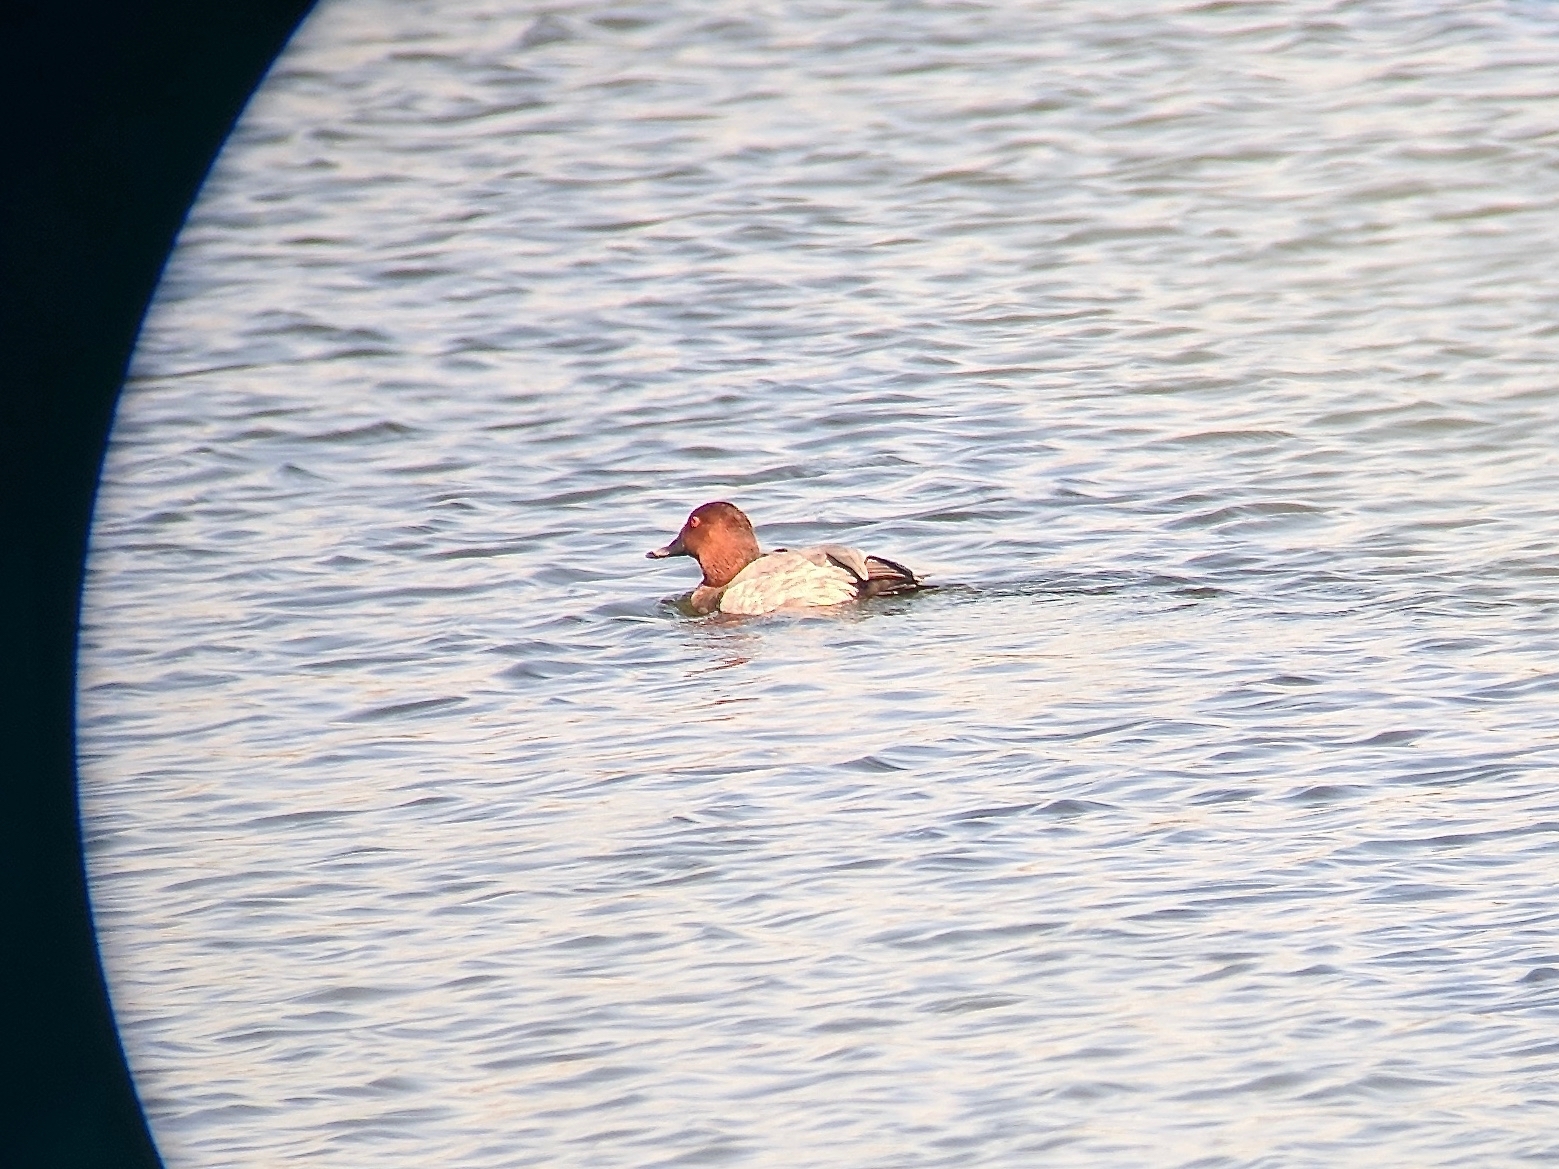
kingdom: Animalia
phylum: Chordata
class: Aves
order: Anseriformes
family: Anatidae
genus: Aythya
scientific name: Aythya ferina
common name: Common pochard
